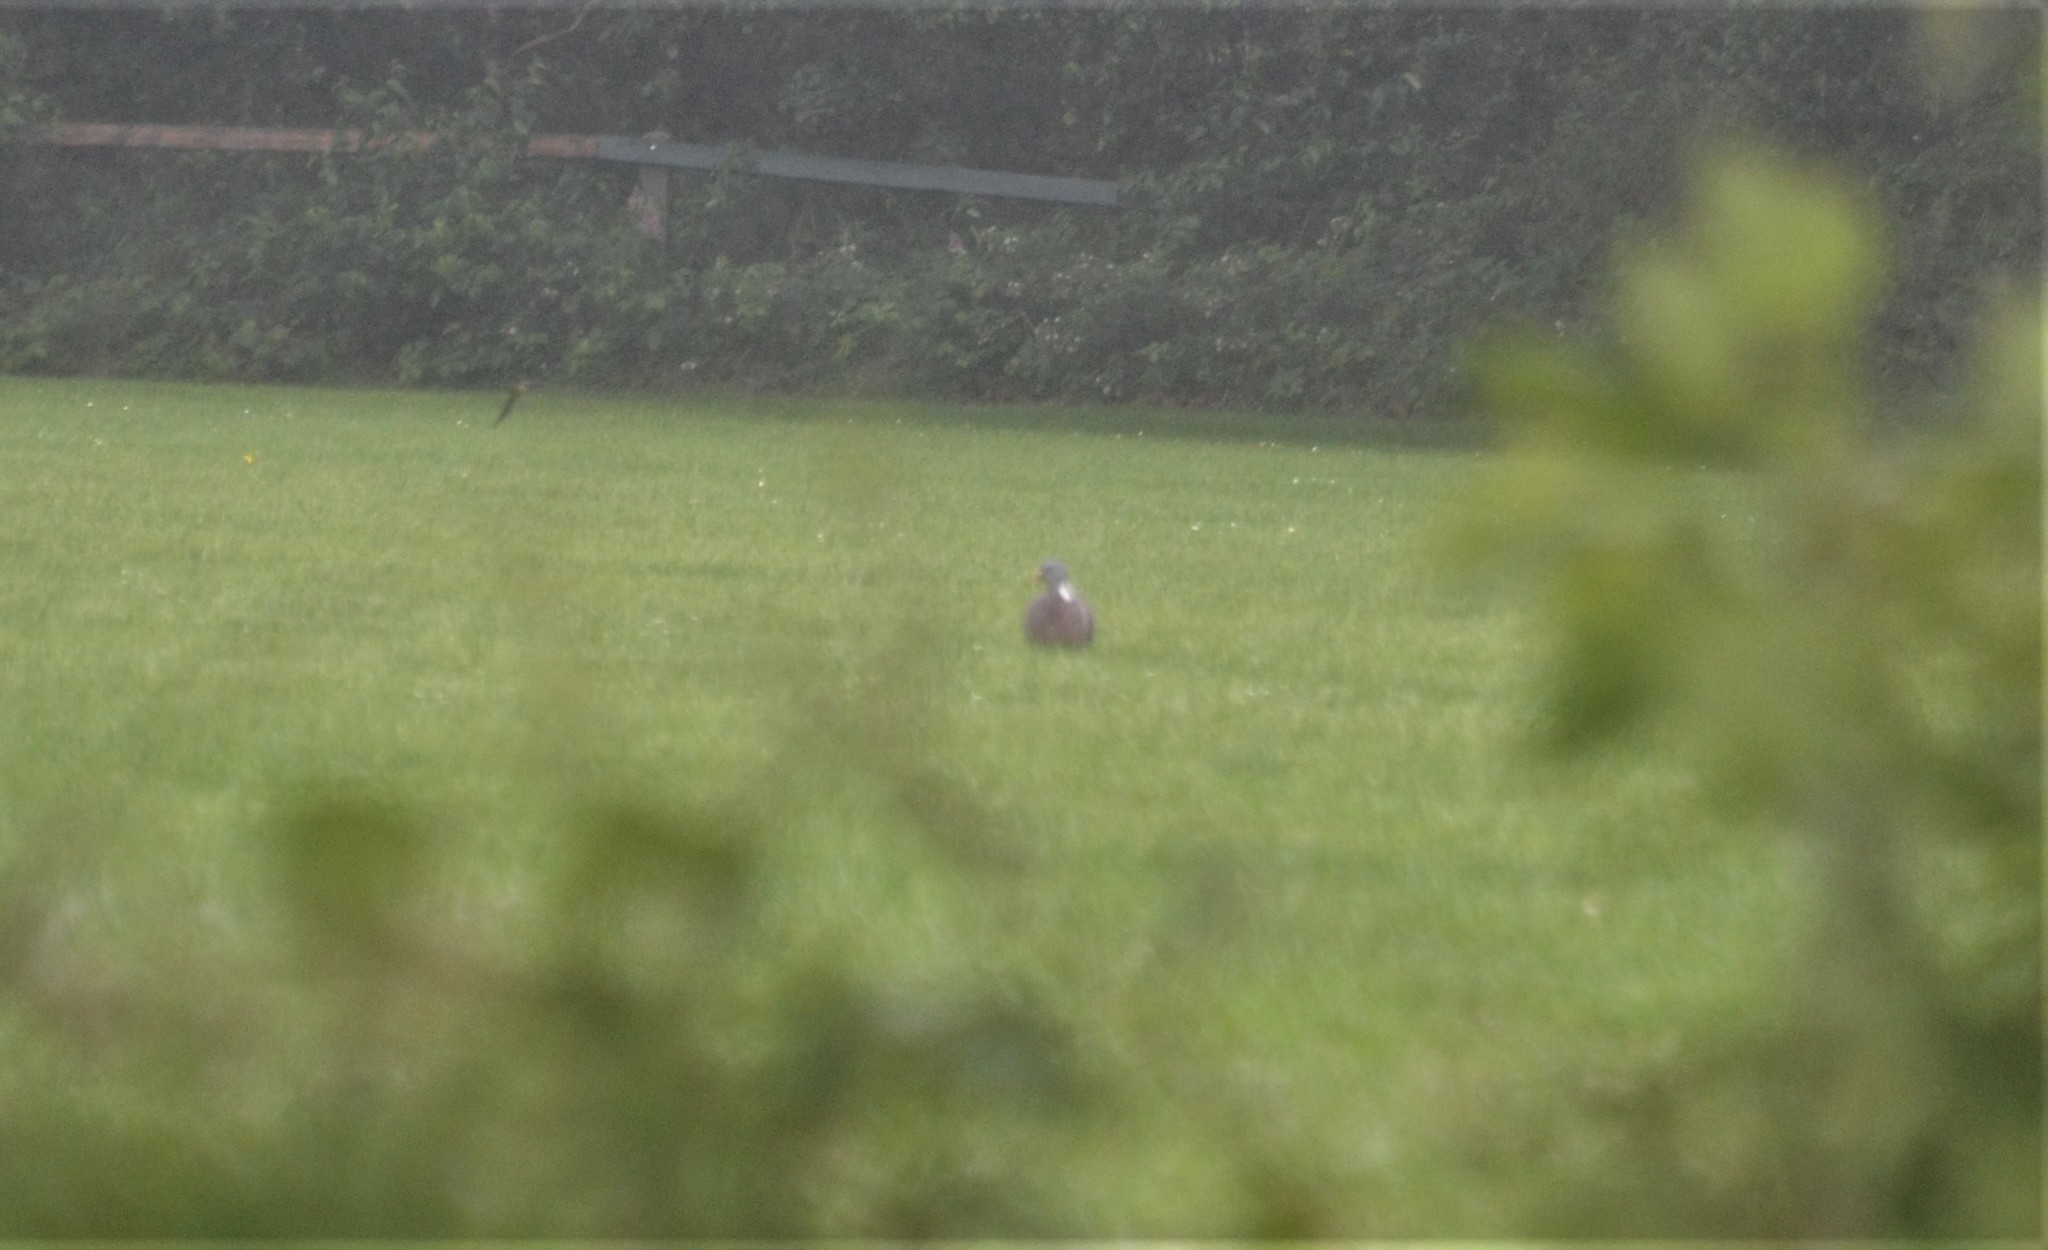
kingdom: Animalia
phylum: Chordata
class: Aves
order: Columbiformes
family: Columbidae
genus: Columba
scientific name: Columba palumbus
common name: Common wood pigeon
